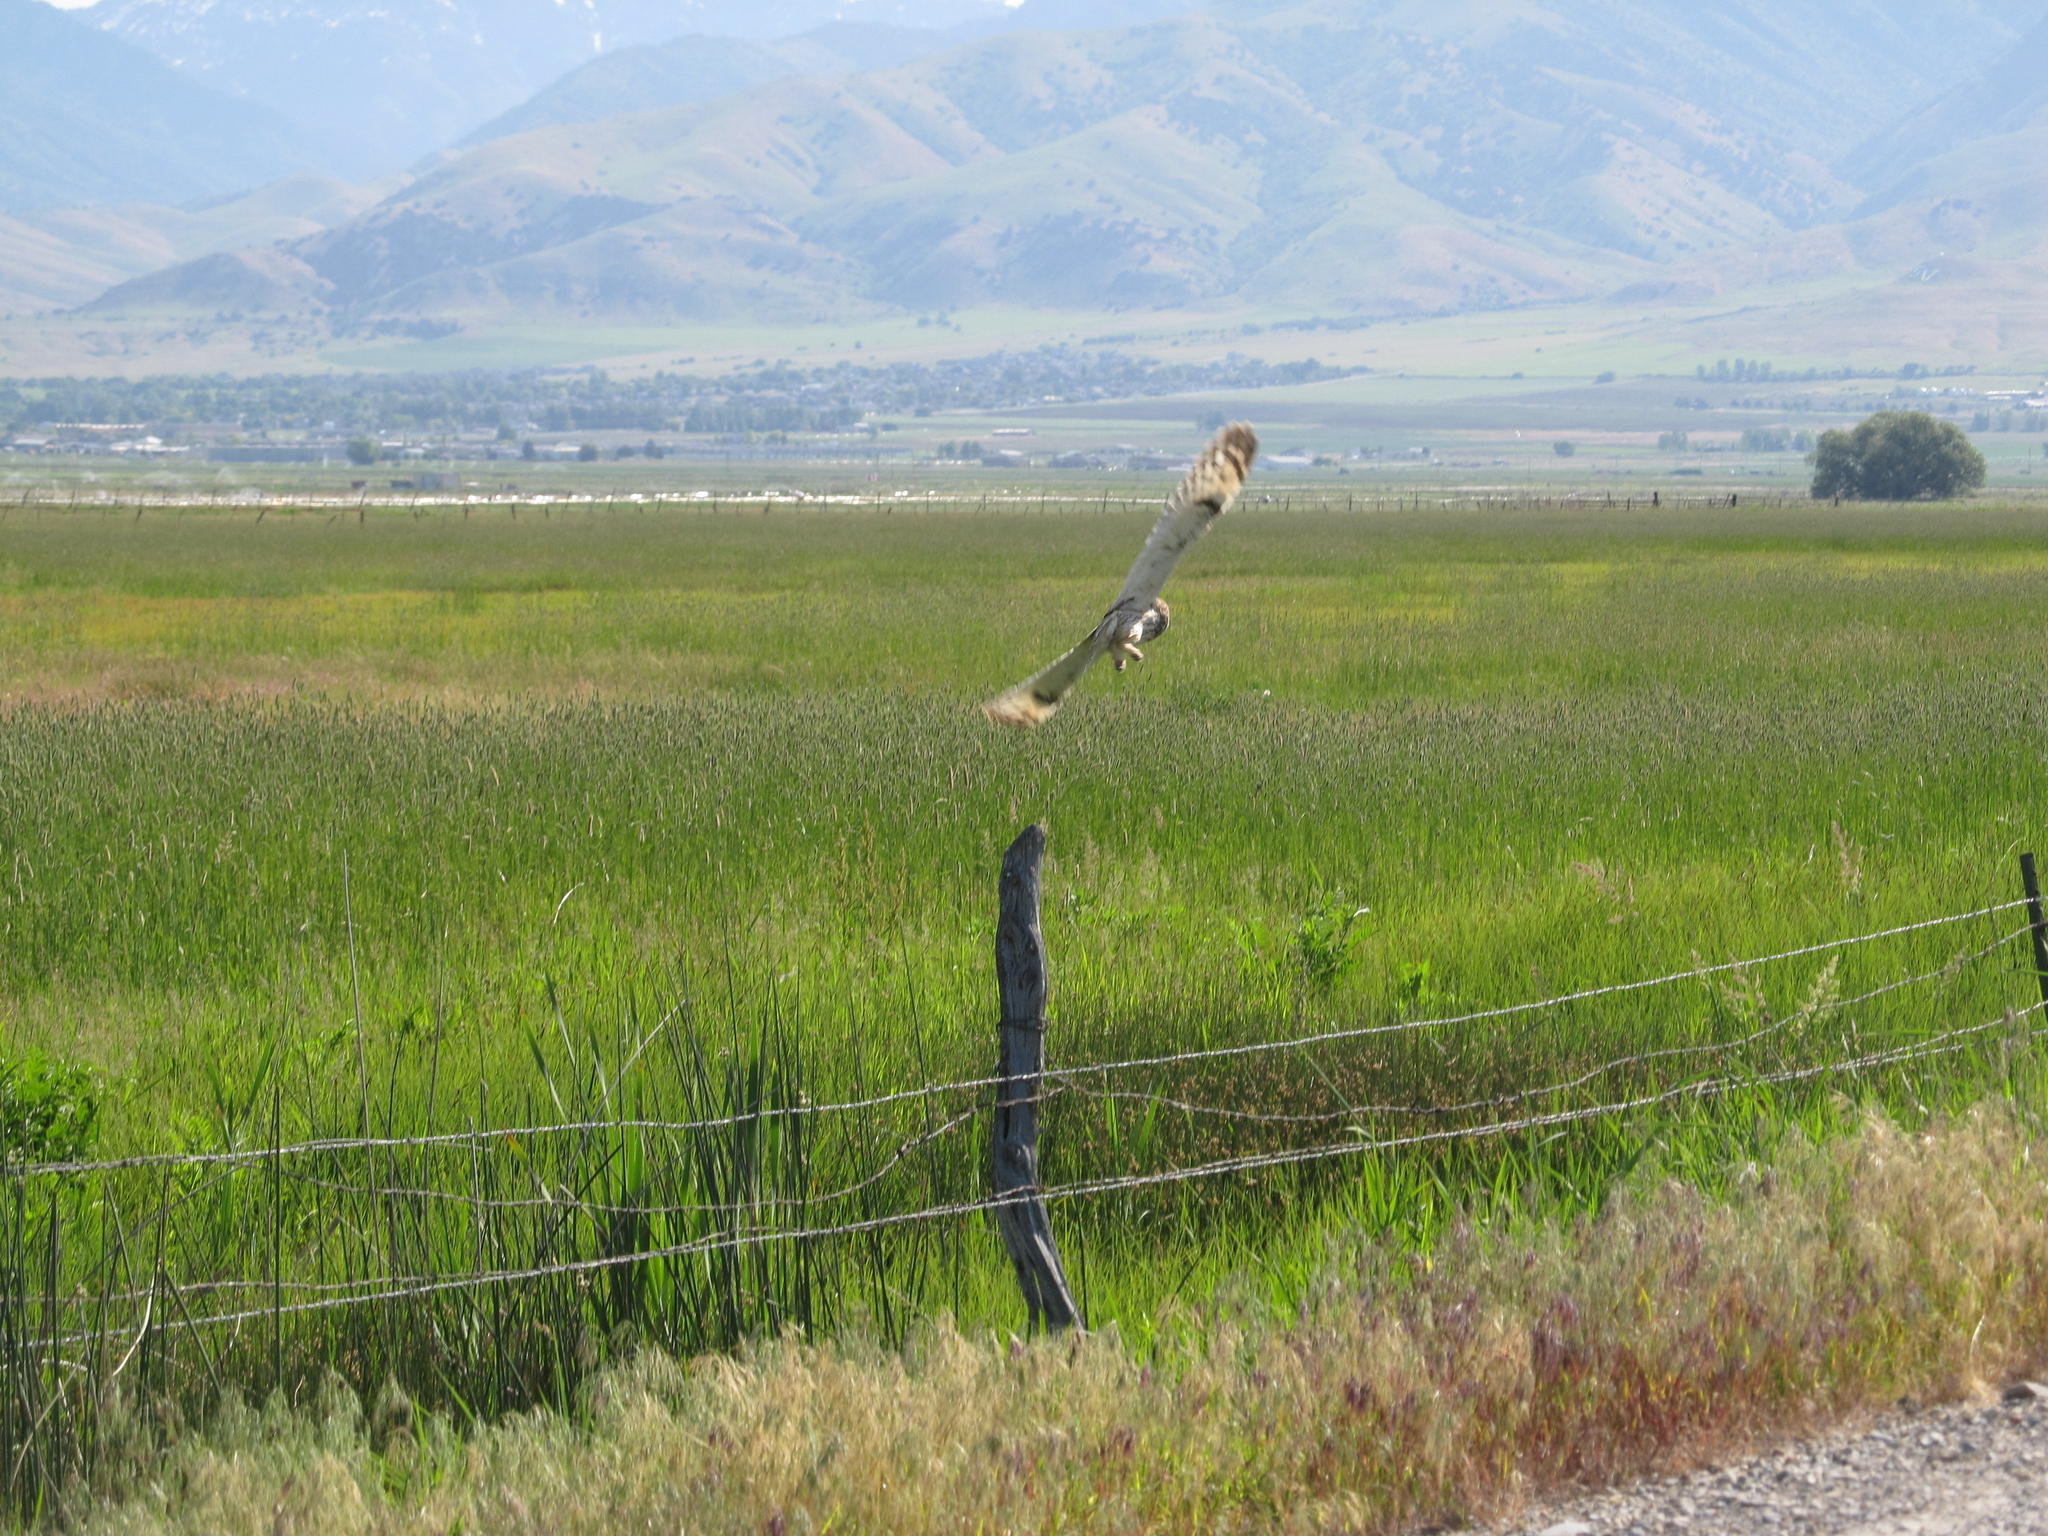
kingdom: Animalia
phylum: Chordata
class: Aves
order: Strigiformes
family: Strigidae
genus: Asio
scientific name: Asio flammeus
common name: Short-eared owl
